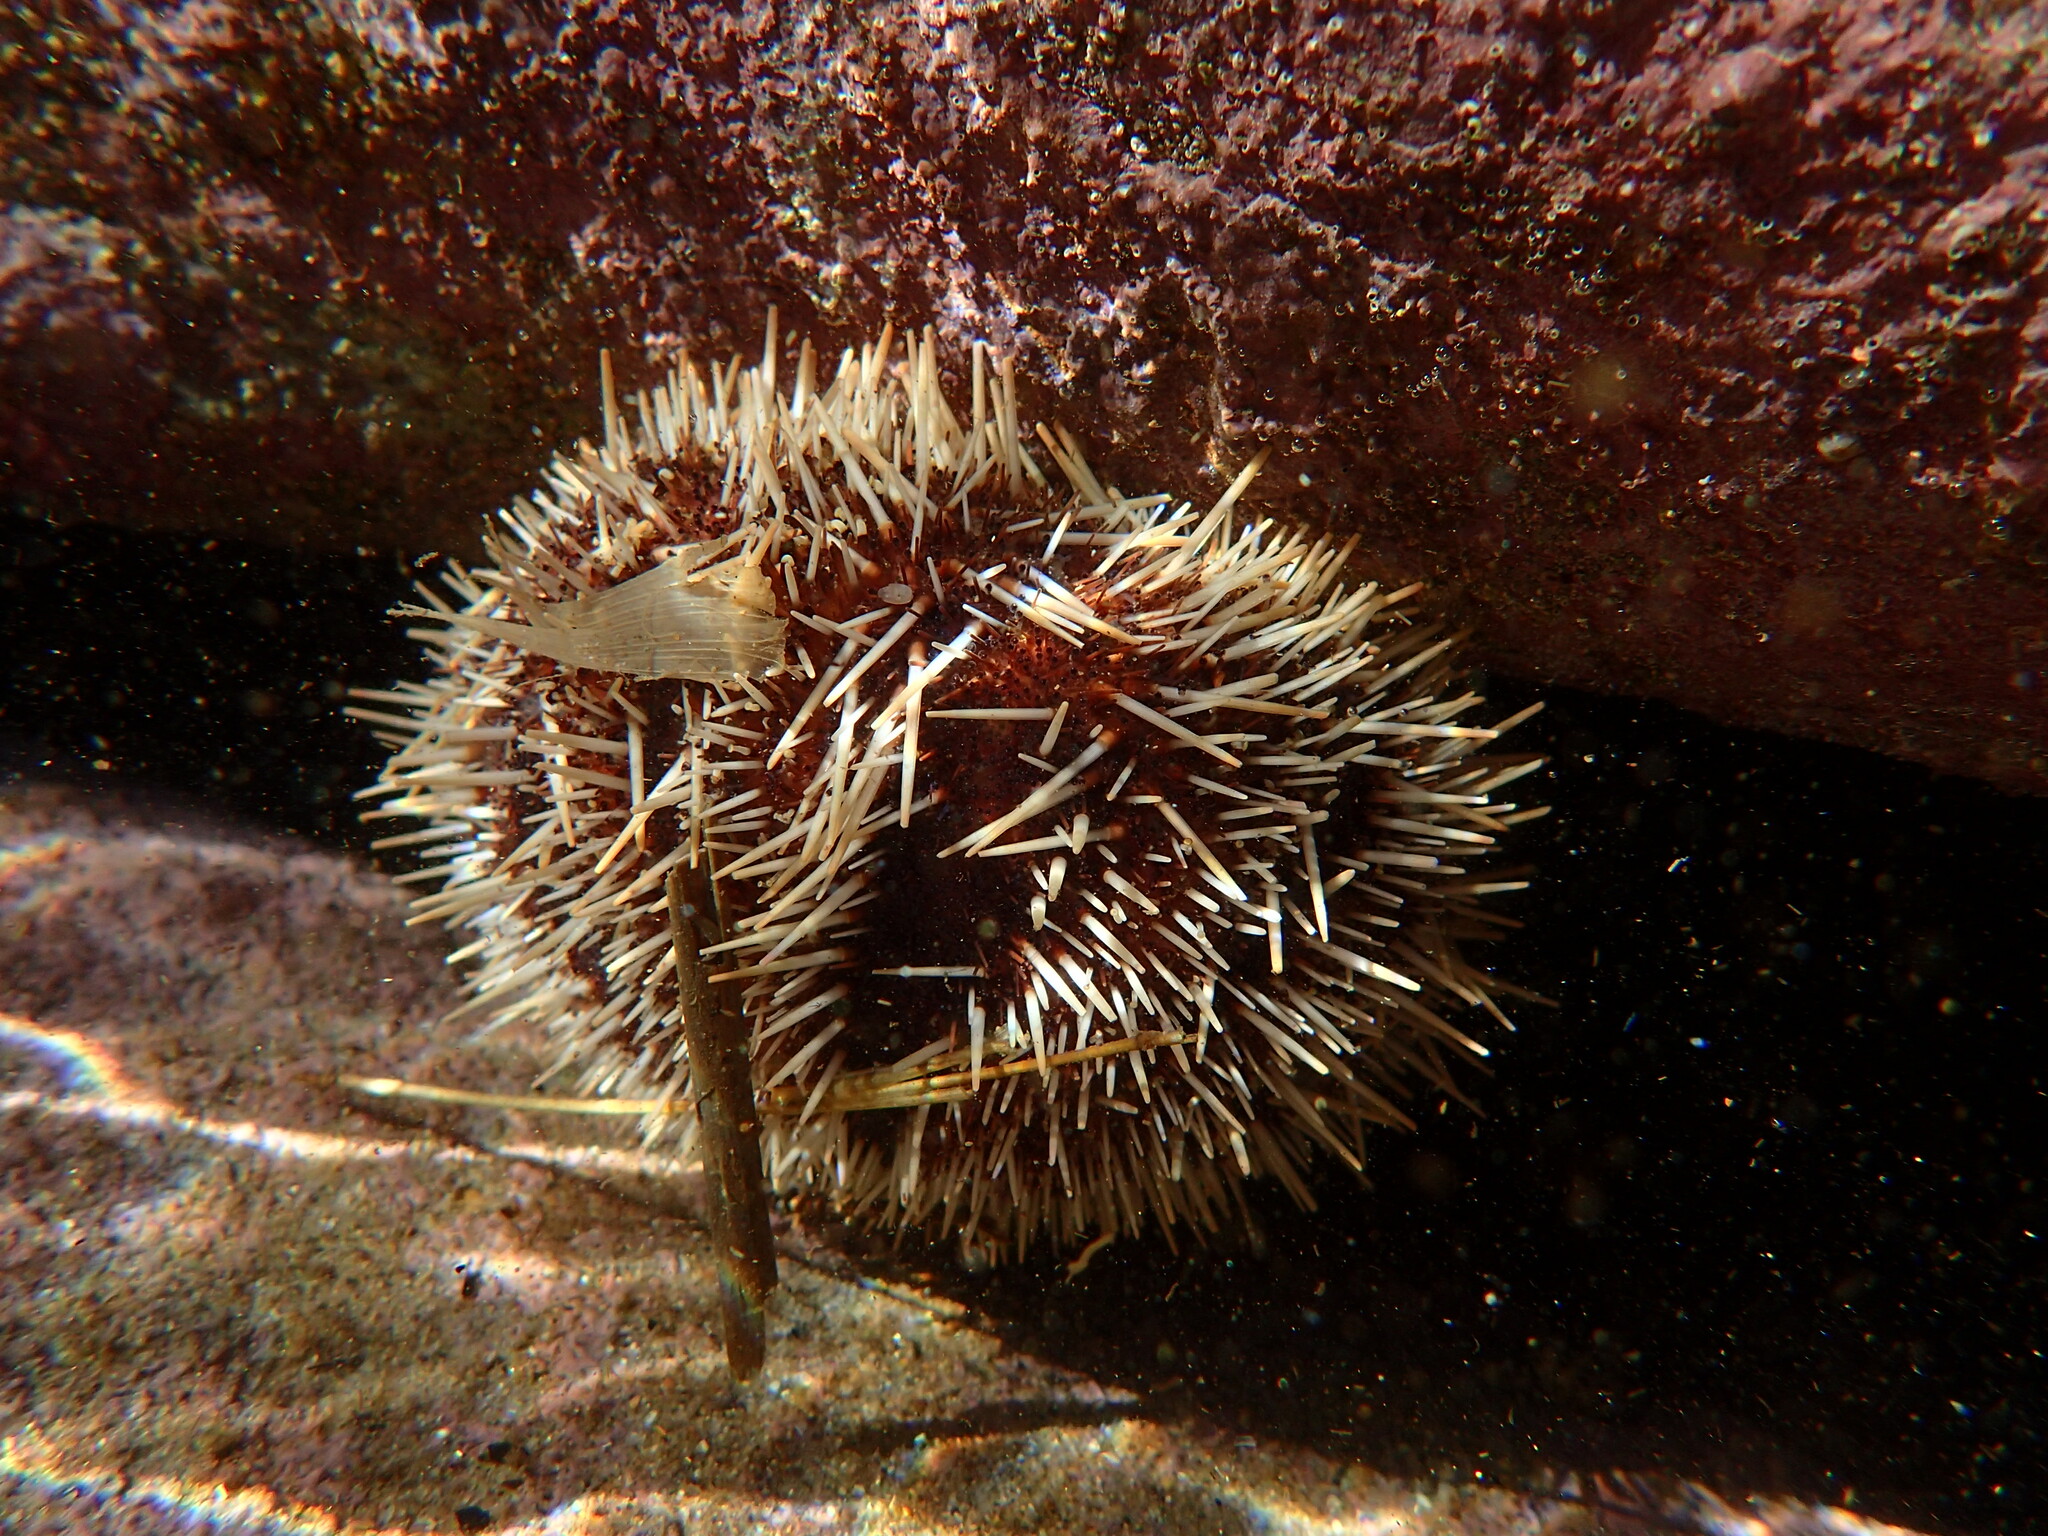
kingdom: Animalia
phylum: Echinodermata
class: Echinoidea
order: Camarodonta
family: Toxopneustidae
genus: Tripneustes
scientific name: Tripneustes gratilla
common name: Bischofsmützenseeigel
